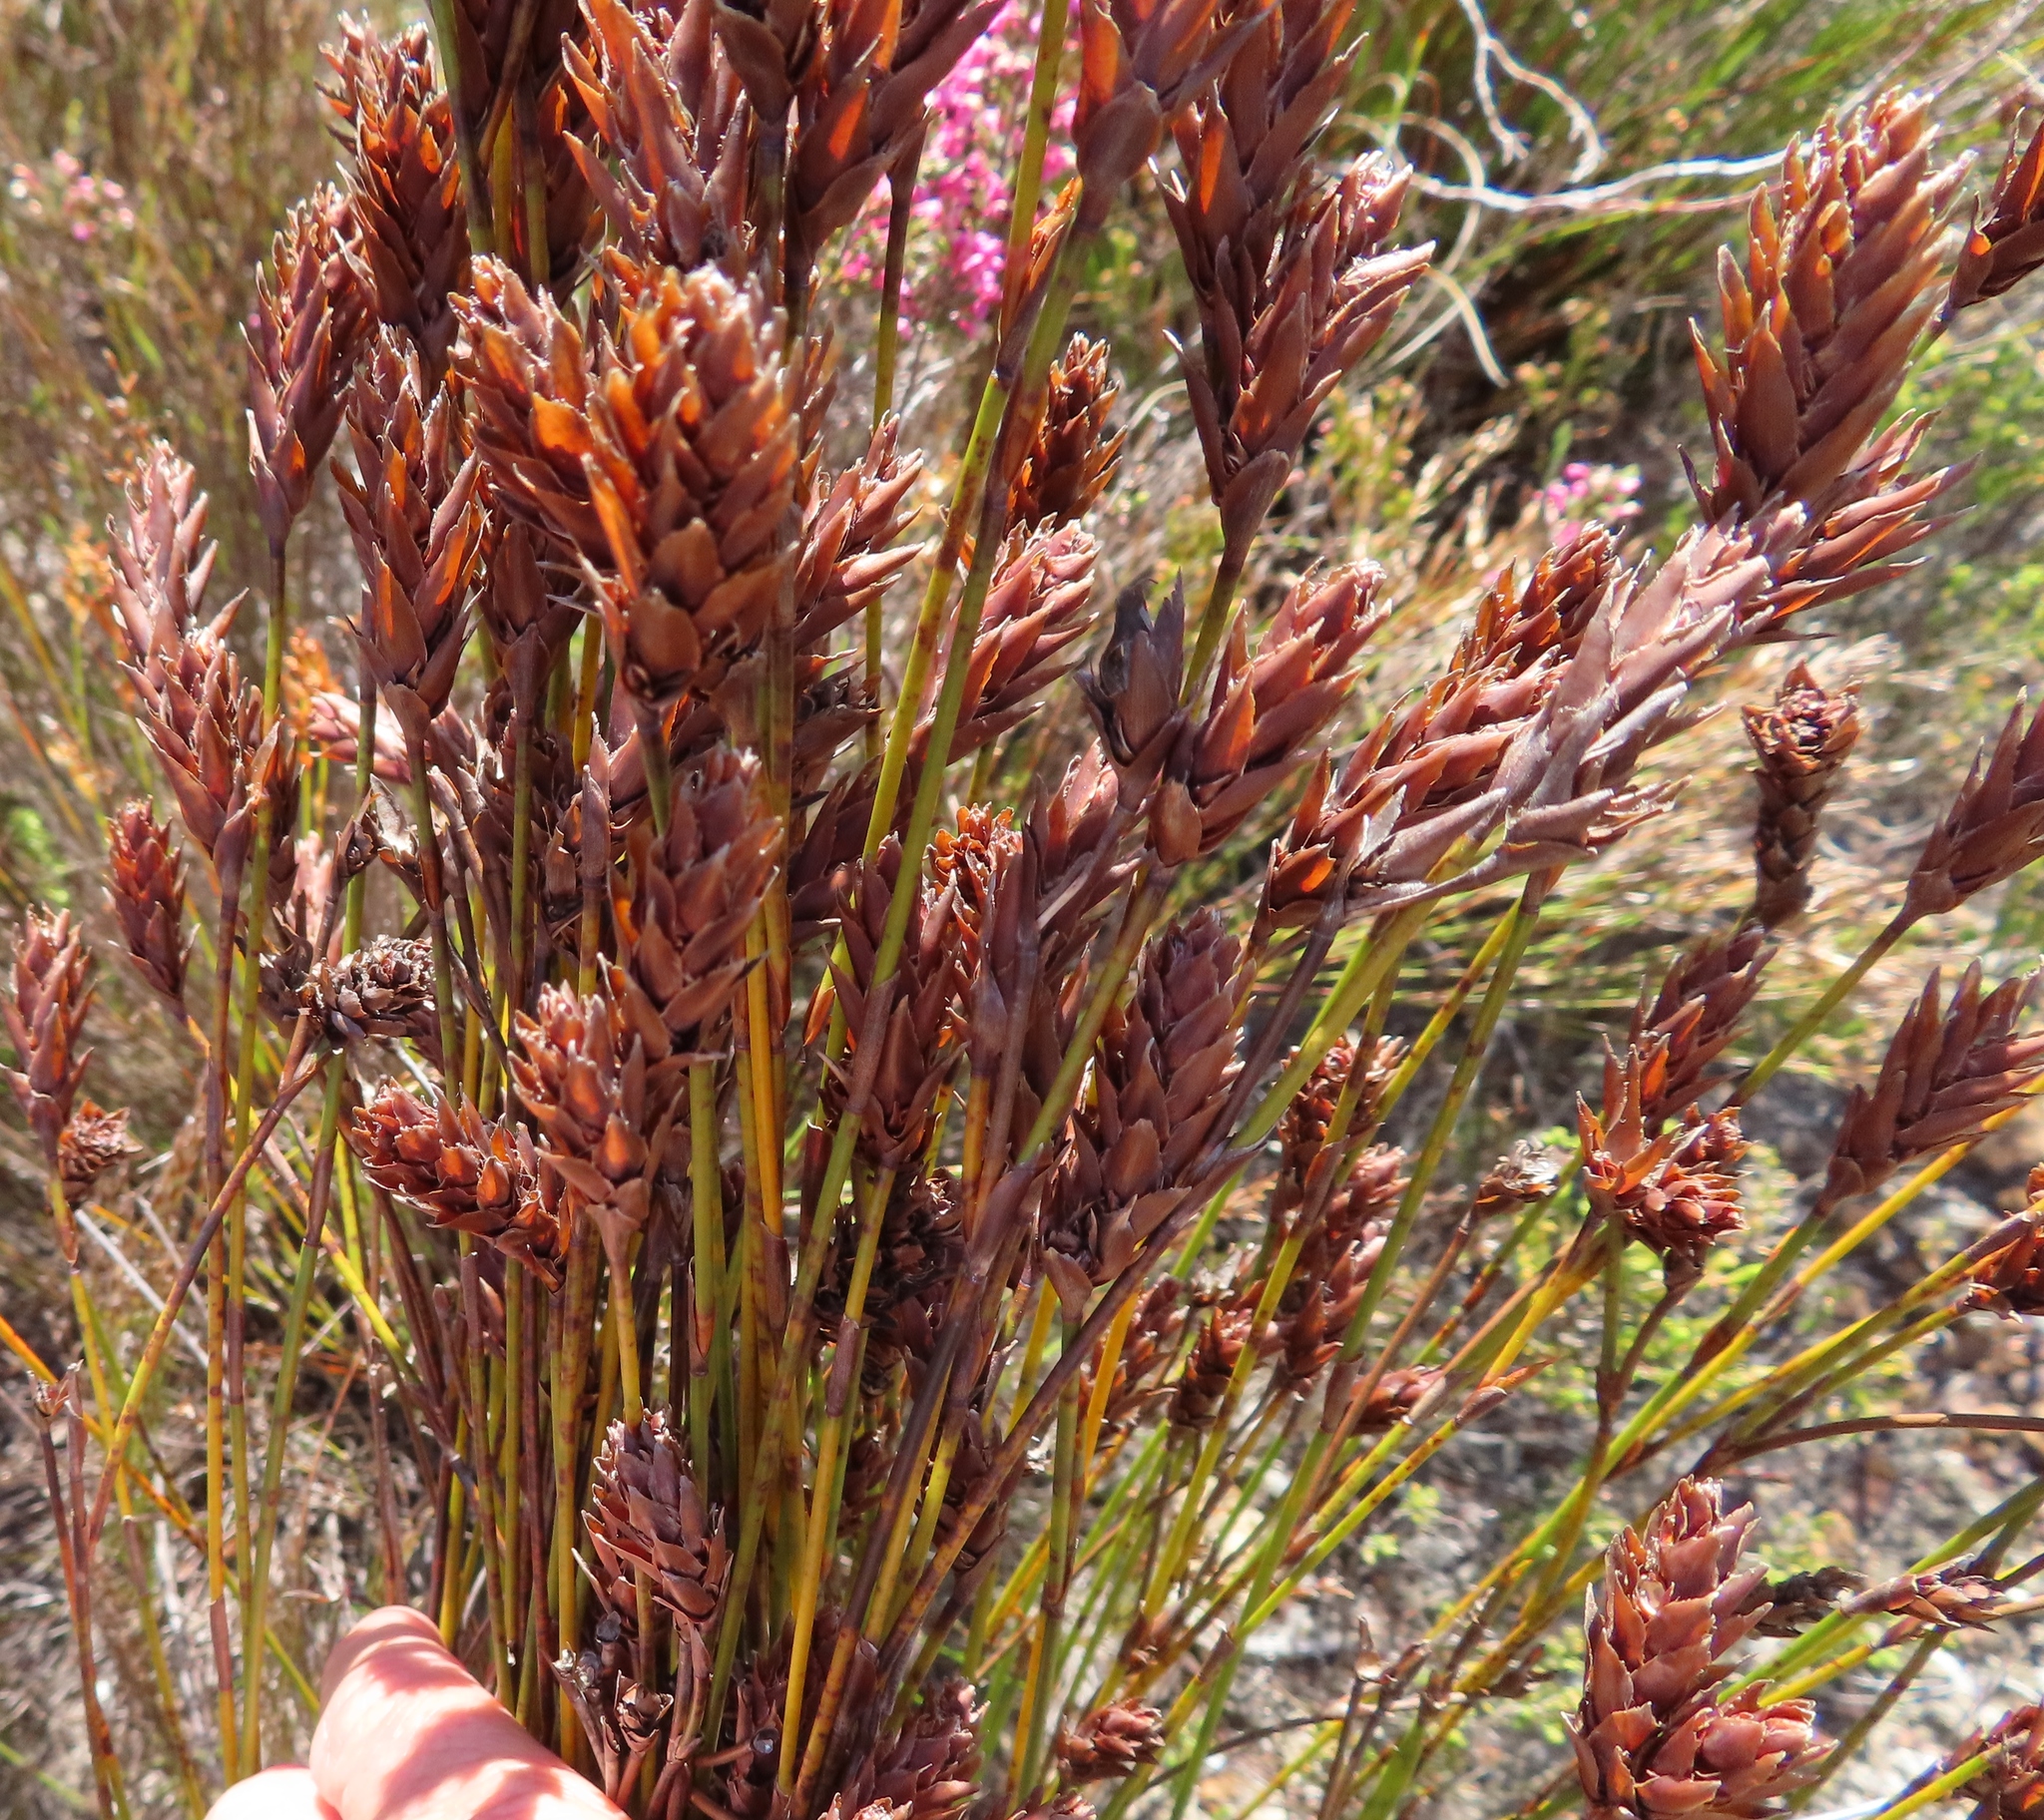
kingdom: Plantae
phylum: Tracheophyta
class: Liliopsida
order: Poales
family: Restionaceae
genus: Restio
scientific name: Restio bifarius
